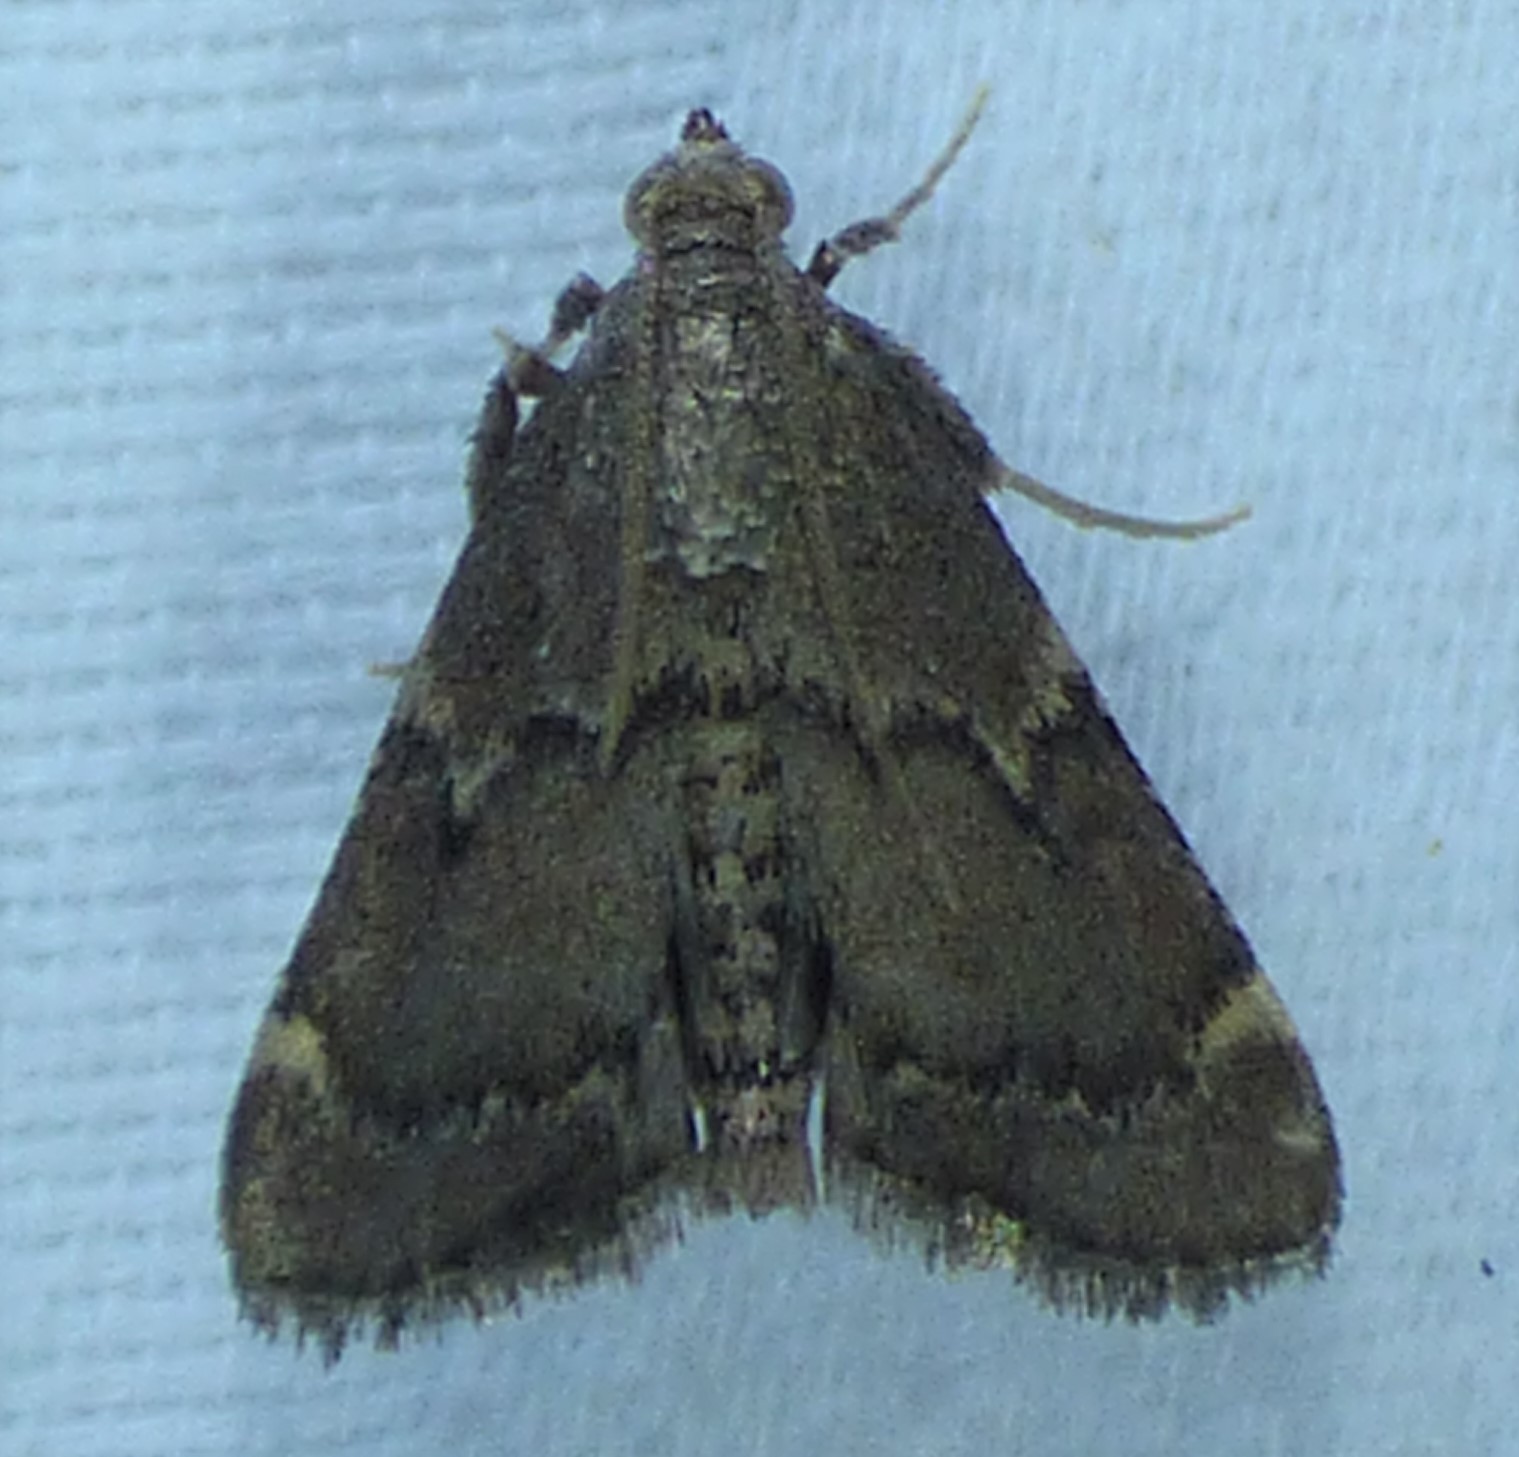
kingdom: Animalia
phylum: Arthropoda
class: Insecta
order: Lepidoptera
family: Pyralidae
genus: Hypsopygia
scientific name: Hypsopygia intermedialis
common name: Red-shawled moth
